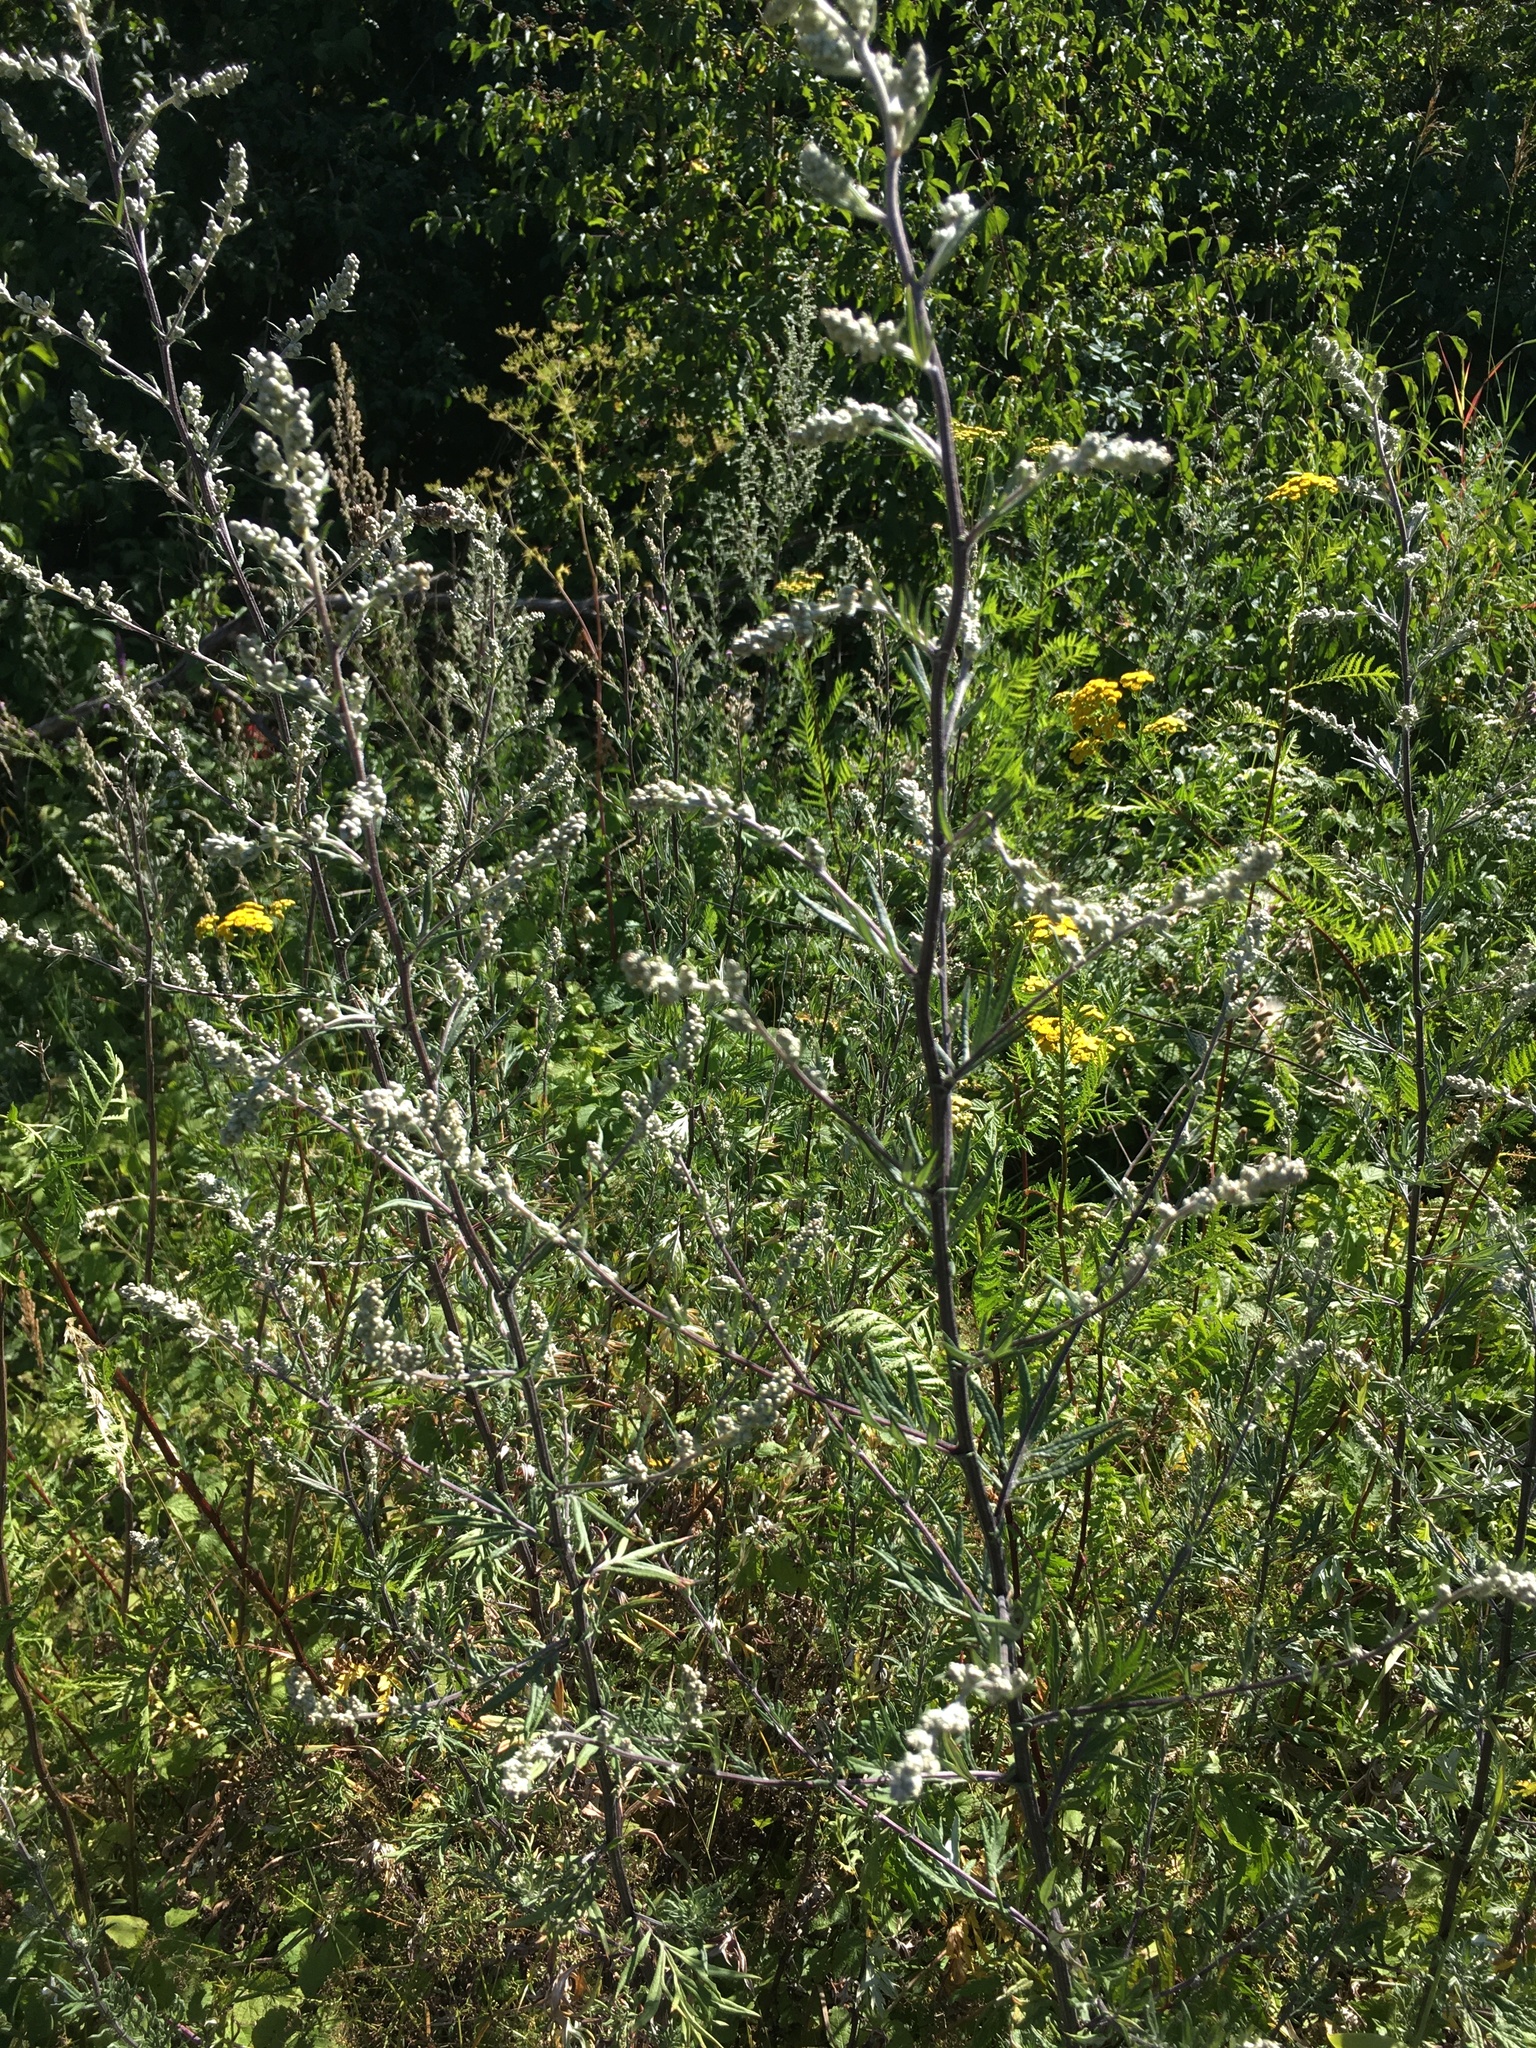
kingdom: Plantae
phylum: Tracheophyta
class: Magnoliopsida
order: Asterales
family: Asteraceae
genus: Artemisia
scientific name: Artemisia vulgaris
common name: Mugwort
